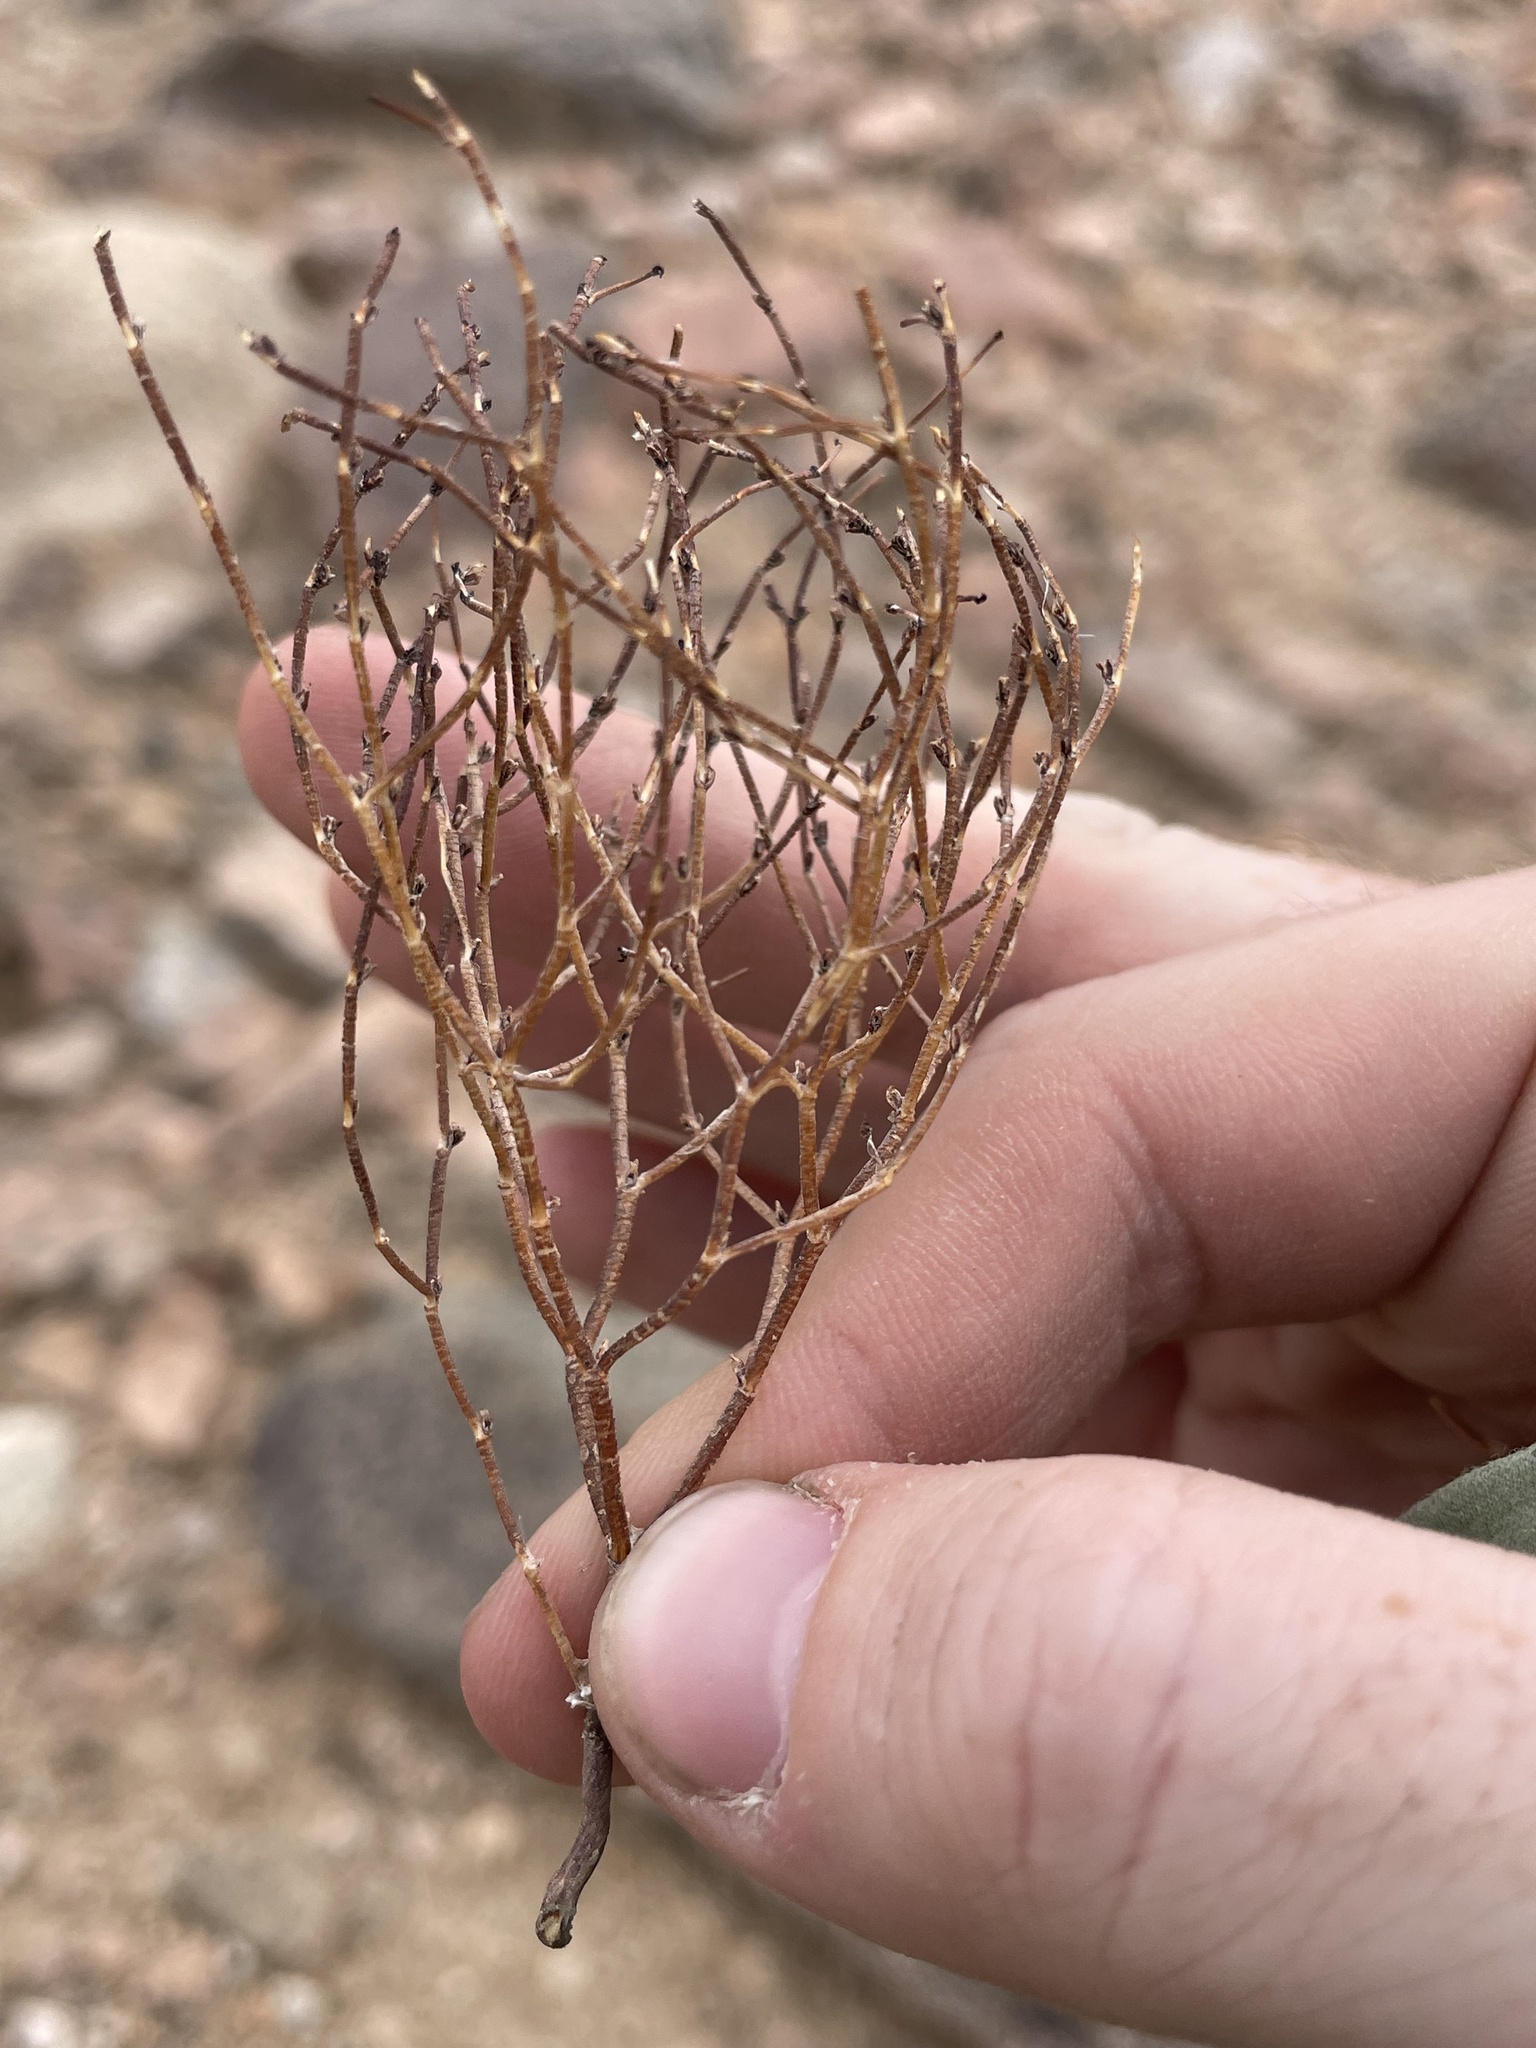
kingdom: Plantae
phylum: Tracheophyta
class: Magnoliopsida
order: Caryophyllales
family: Polygonaceae
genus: Eriogonum
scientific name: Eriogonum nidularium
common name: Bird's-nest wild buckwheat
